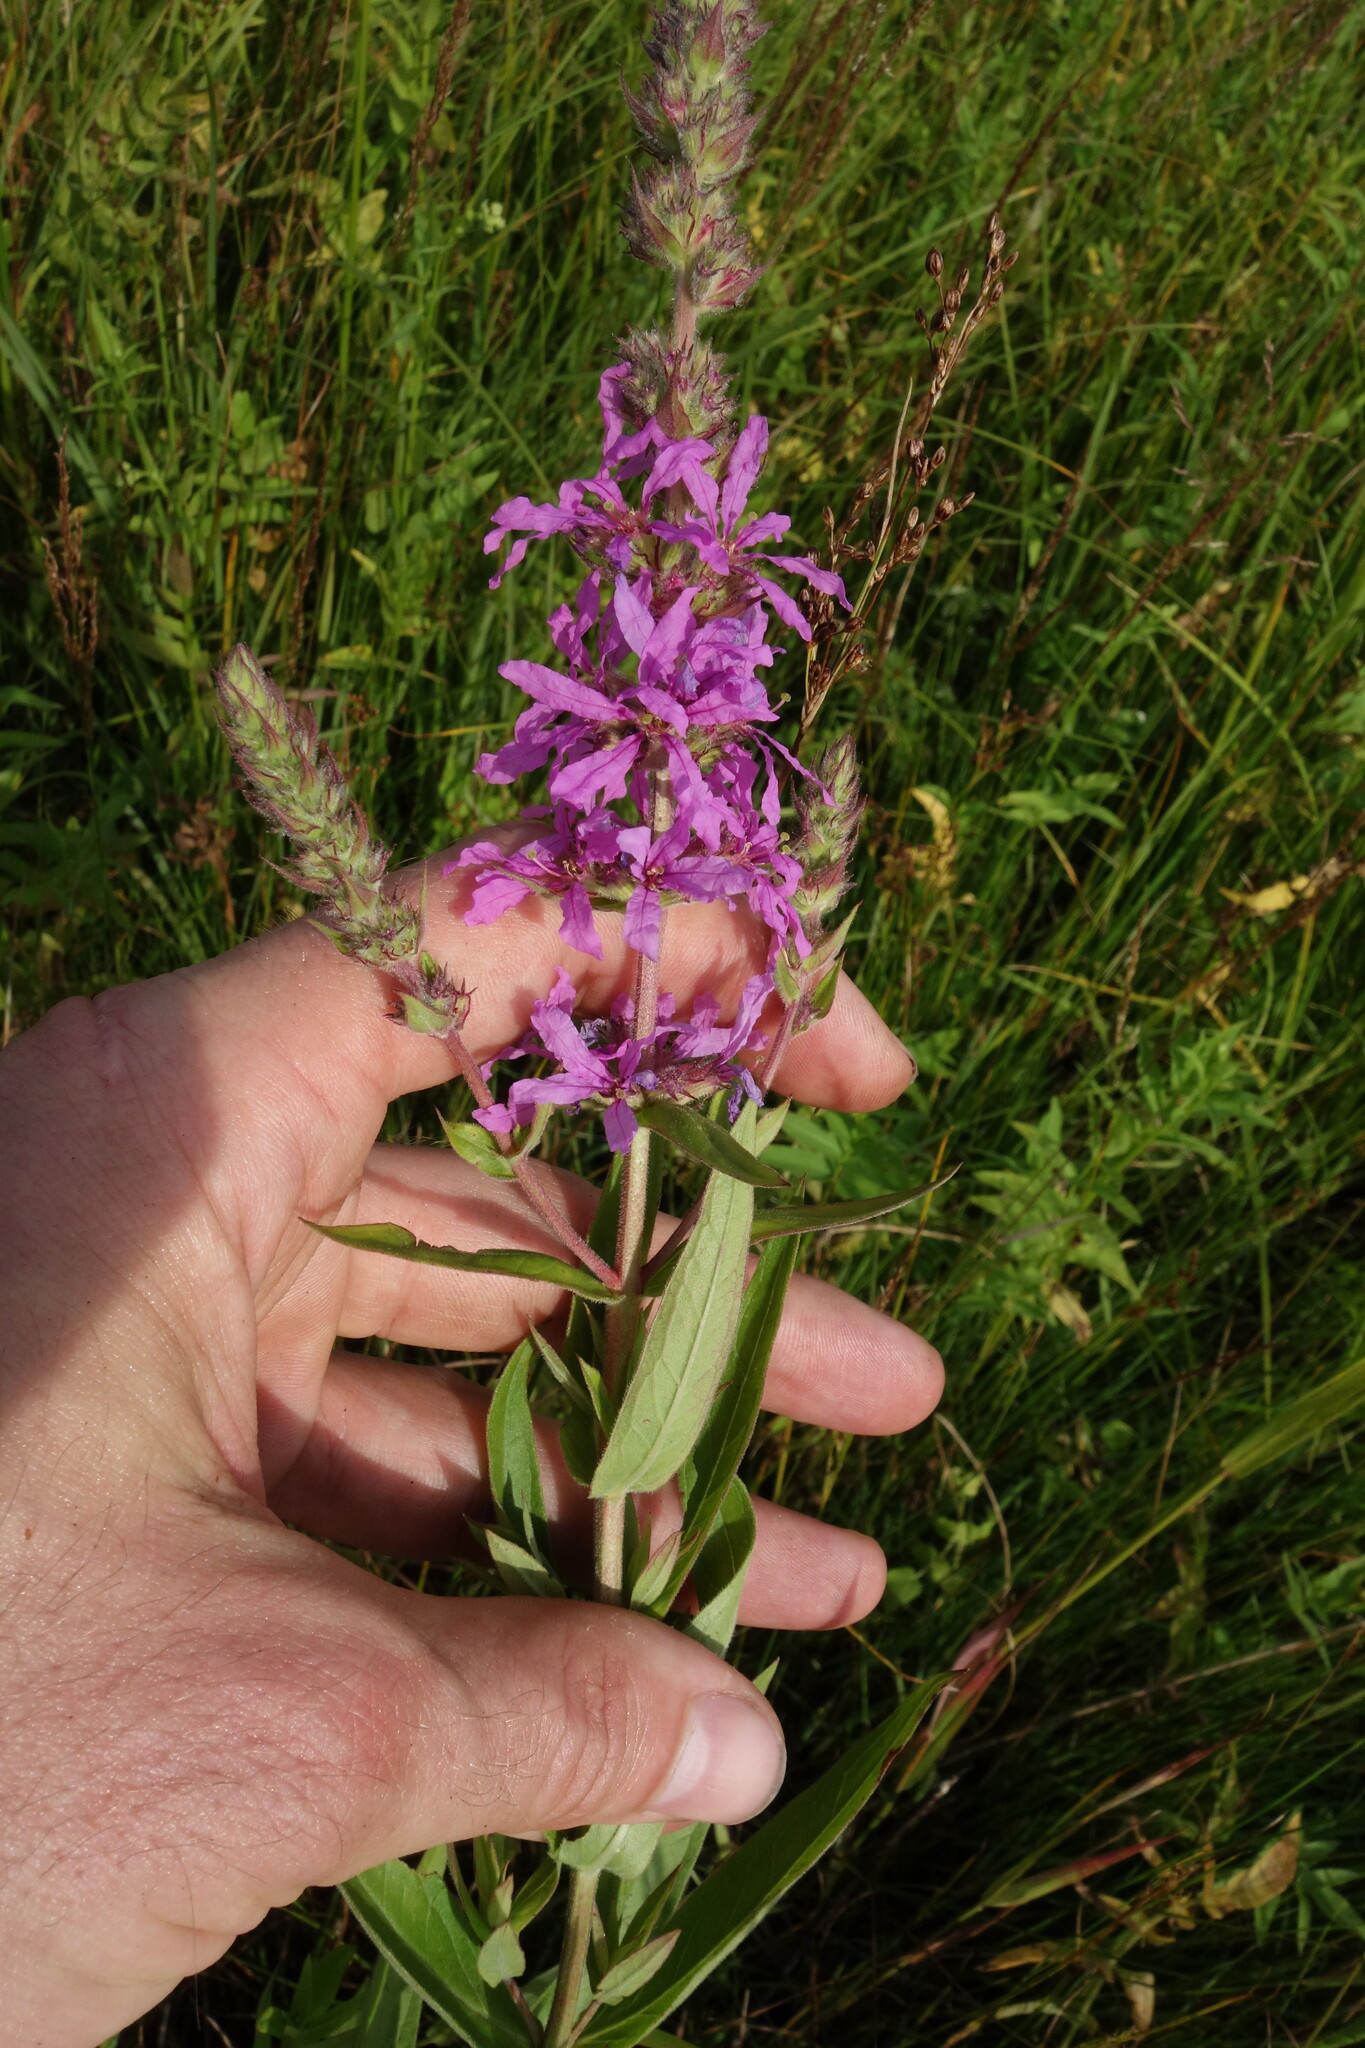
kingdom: Plantae
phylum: Tracheophyta
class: Magnoliopsida
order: Myrtales
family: Lythraceae
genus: Lythrum
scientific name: Lythrum salicaria
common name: Purple loosestrife
